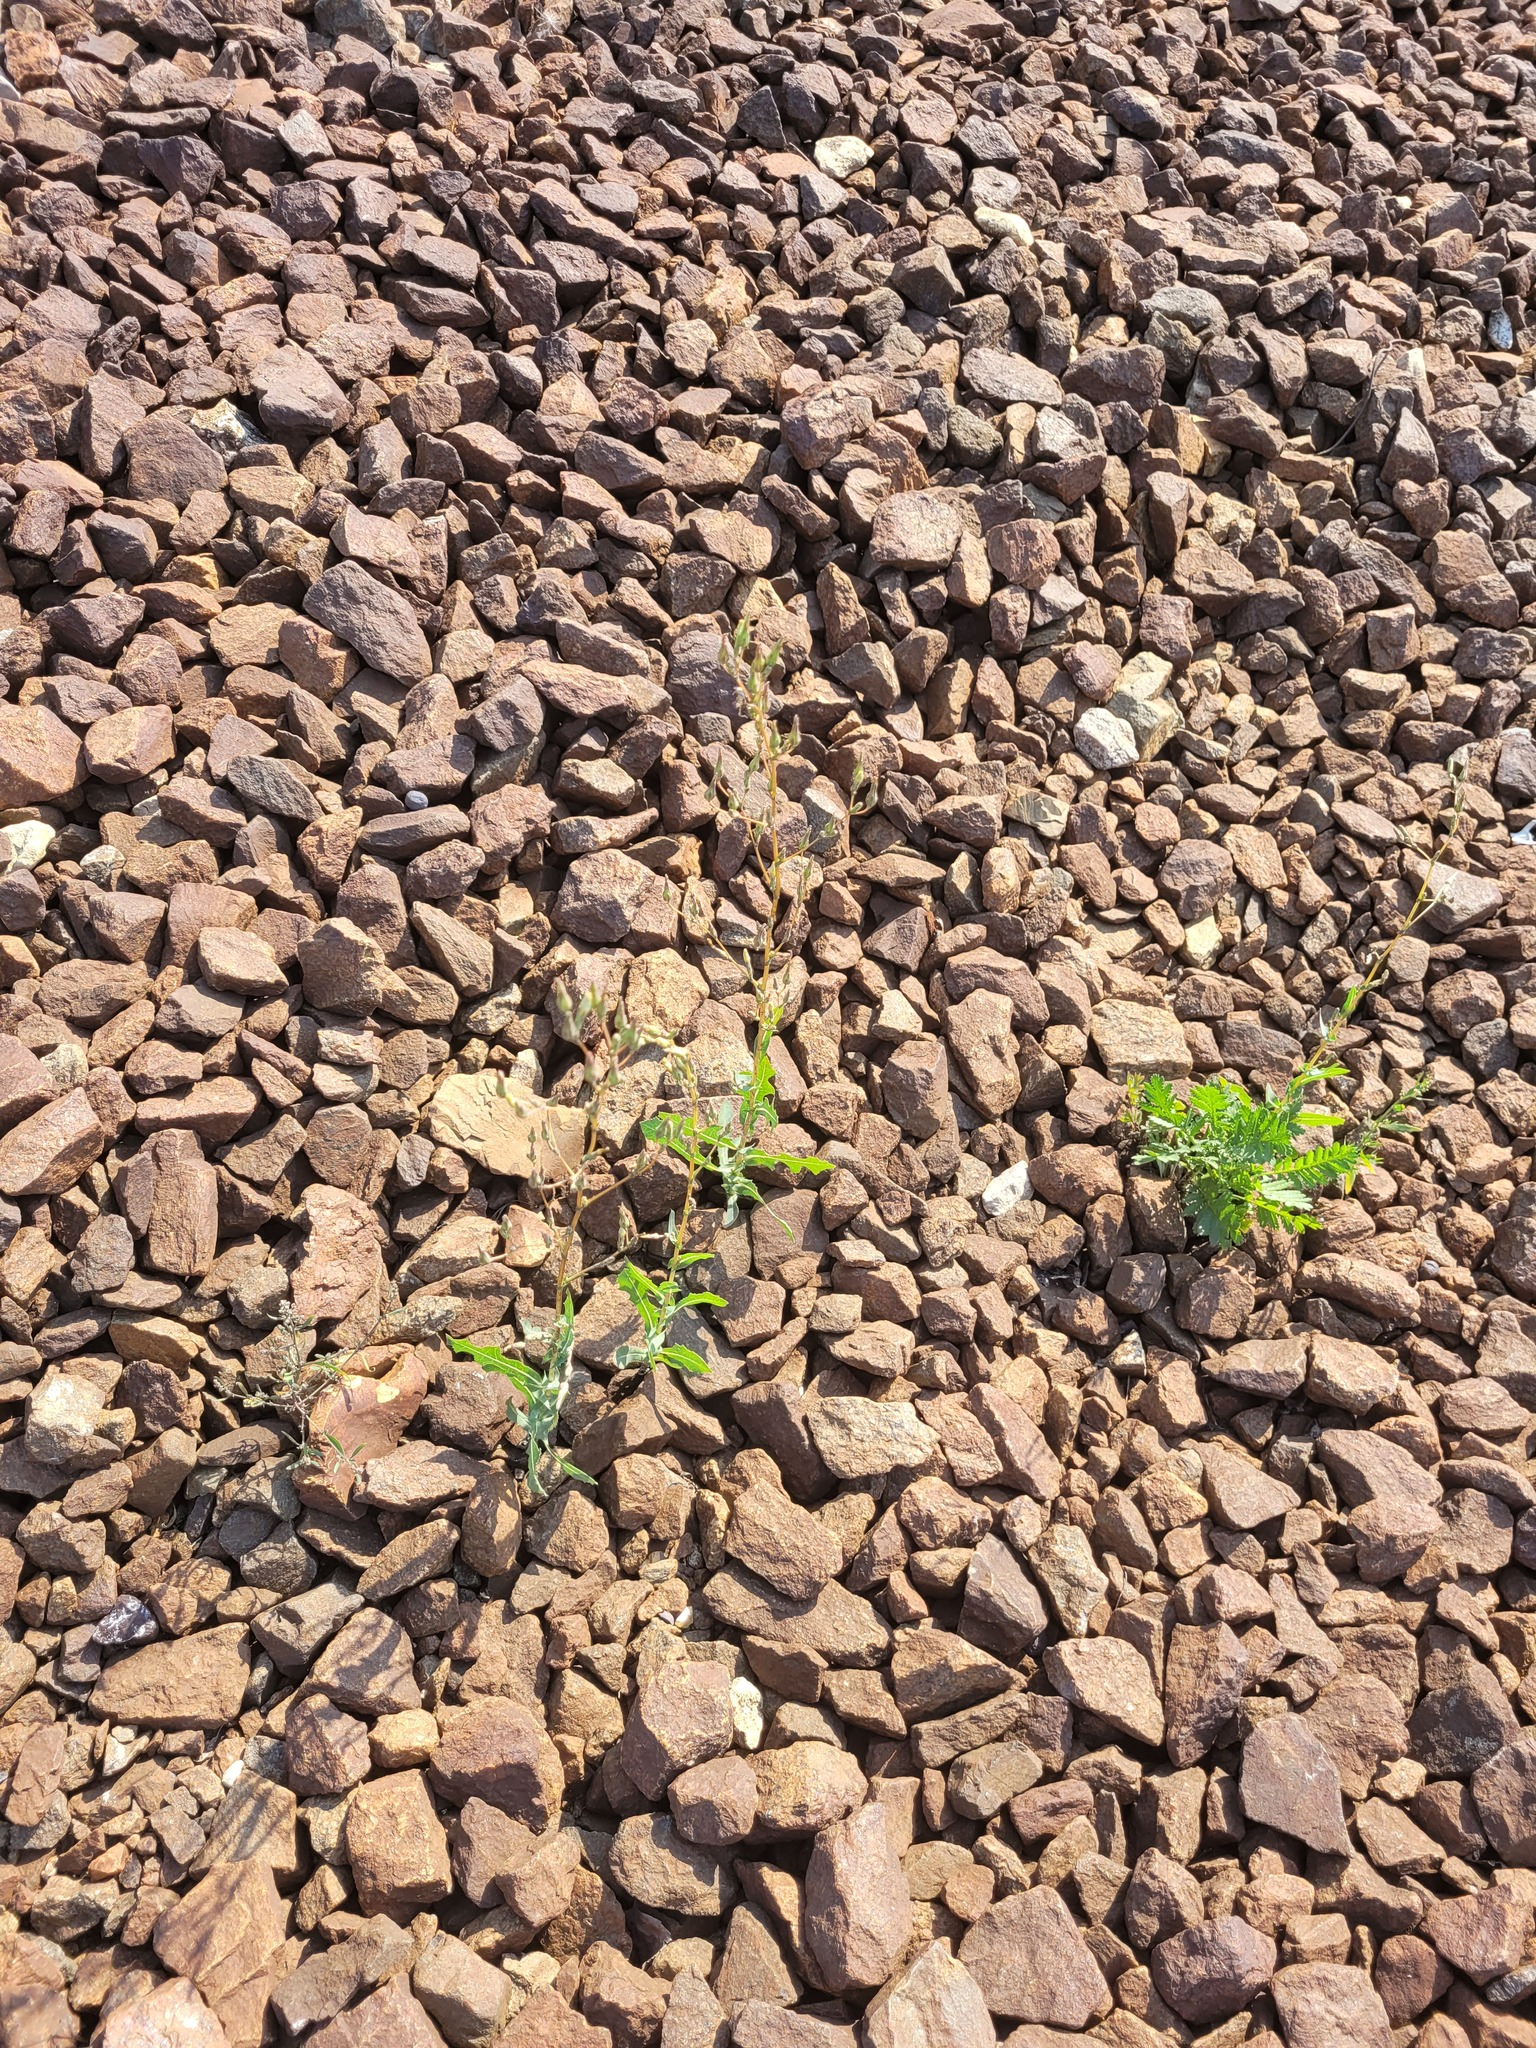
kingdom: Plantae
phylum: Tracheophyta
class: Magnoliopsida
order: Asterales
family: Asteraceae
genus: Lactuca
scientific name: Lactuca serriola
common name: Prickly lettuce
